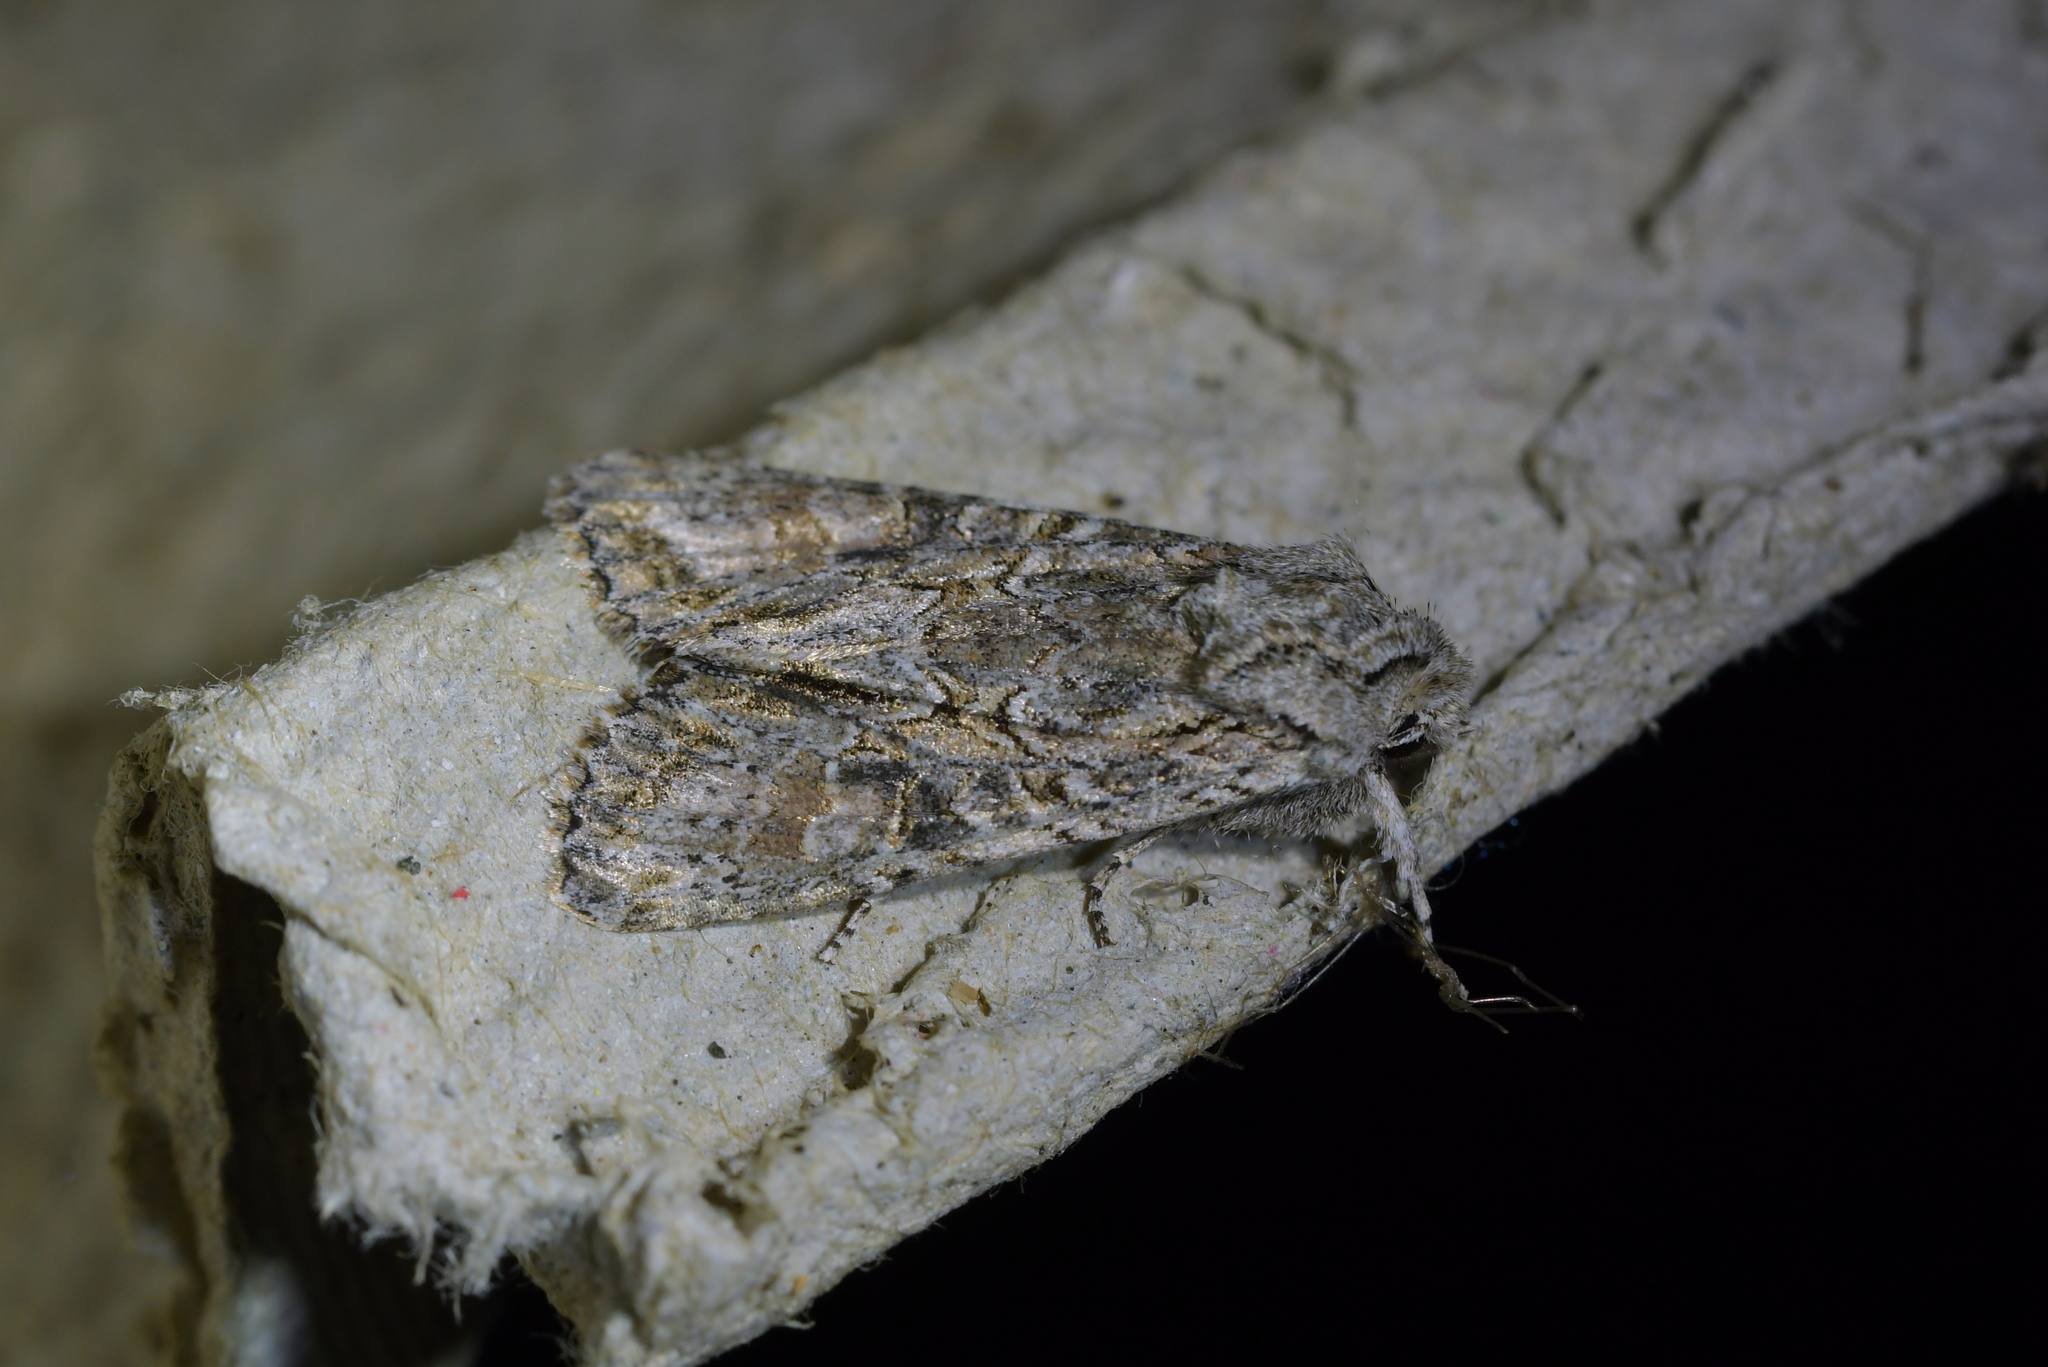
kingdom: Animalia
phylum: Arthropoda
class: Insecta
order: Lepidoptera
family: Noctuidae
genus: Ichneutica
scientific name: Ichneutica mutans
